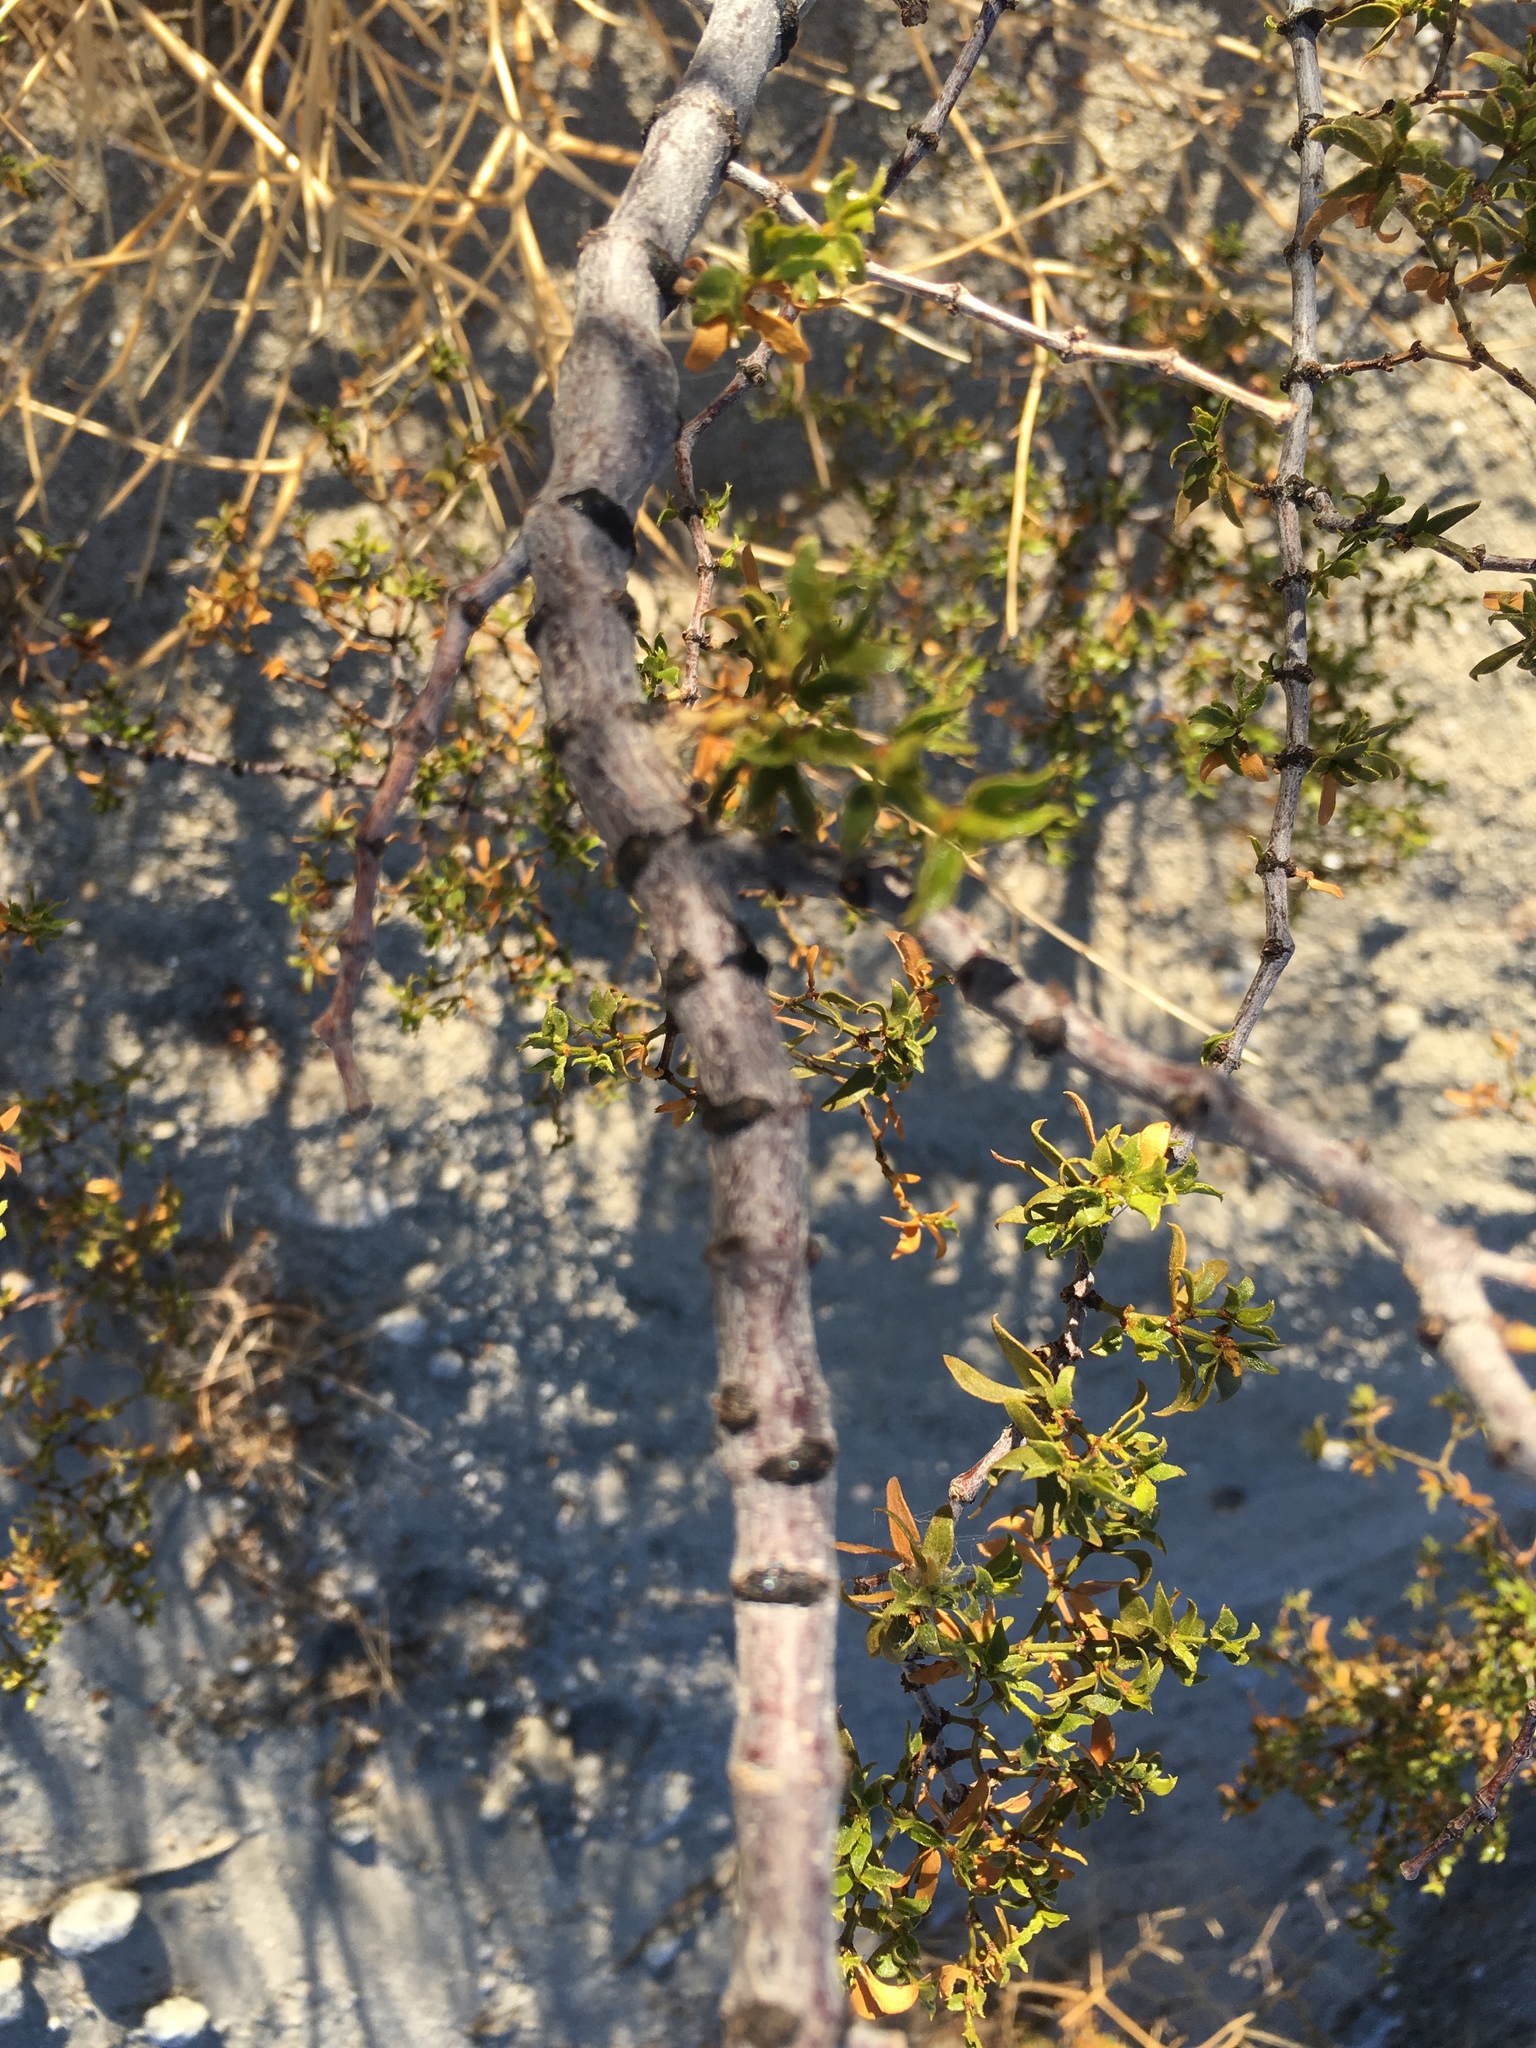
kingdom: Plantae
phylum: Tracheophyta
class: Magnoliopsida
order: Zygophyllales
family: Zygophyllaceae
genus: Larrea
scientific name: Larrea tridentata
